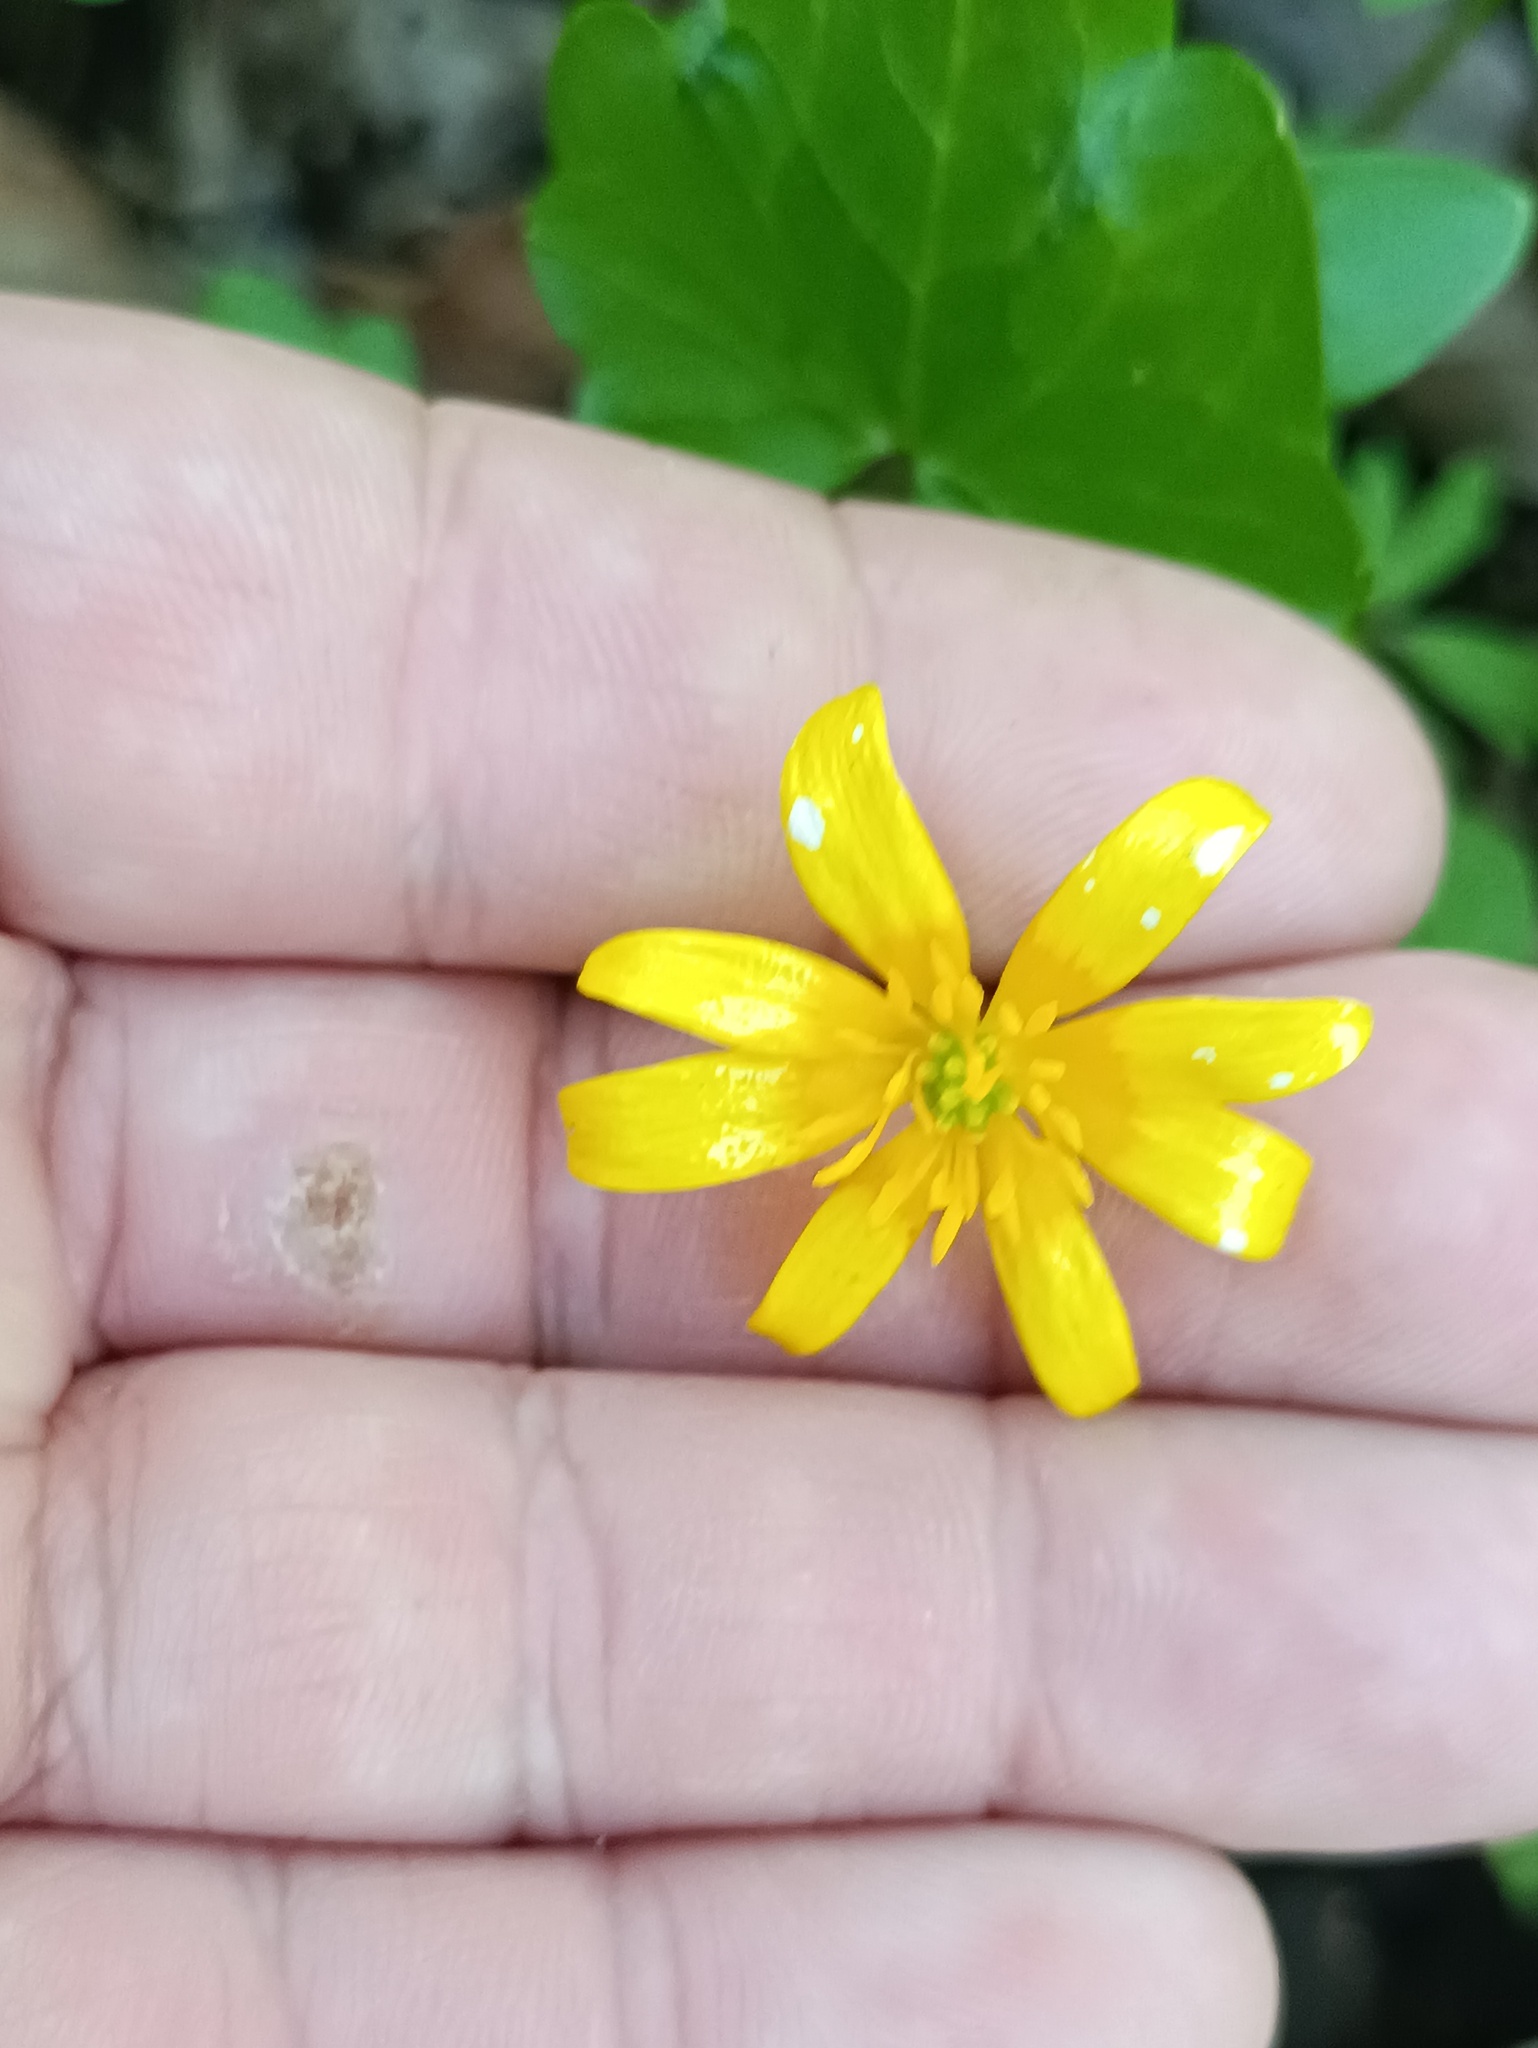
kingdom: Plantae
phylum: Tracheophyta
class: Magnoliopsida
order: Ranunculales
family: Ranunculaceae
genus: Ficaria
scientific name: Ficaria verna
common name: Lesser celandine
